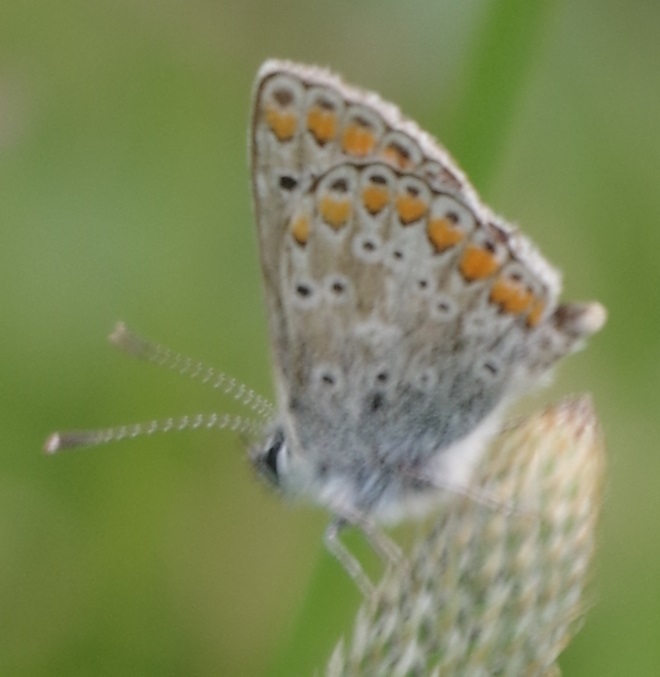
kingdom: Animalia
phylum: Arthropoda
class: Insecta
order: Lepidoptera
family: Lycaenidae
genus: Polyommatus
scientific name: Polyommatus icarus
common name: Common blue
